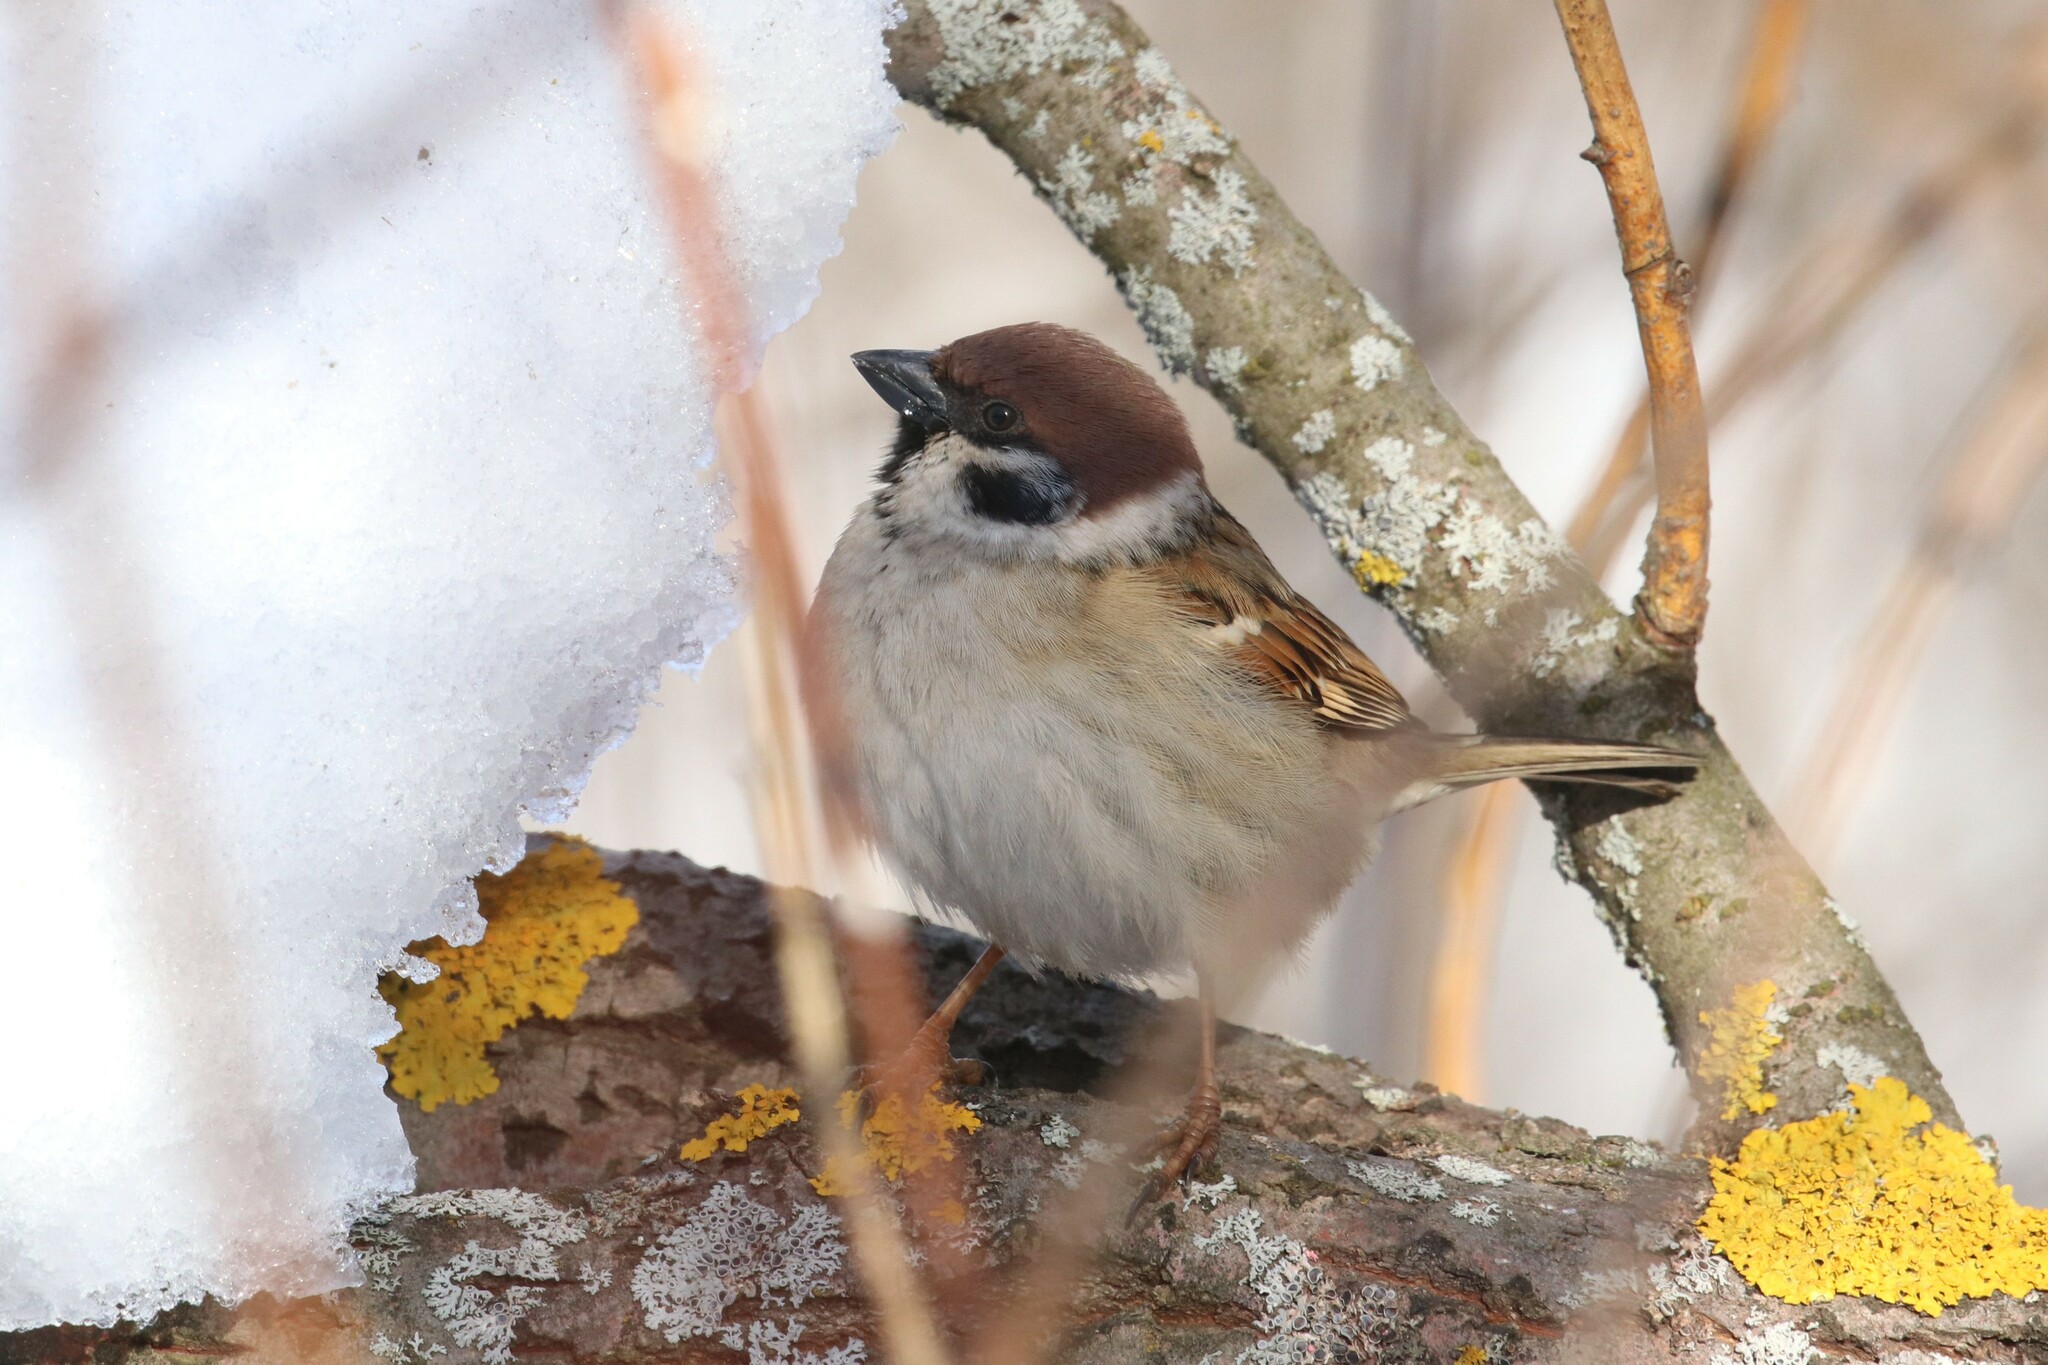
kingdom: Animalia
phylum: Chordata
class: Aves
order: Passeriformes
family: Passeridae
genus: Passer
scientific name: Passer montanus
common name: Eurasian tree sparrow
